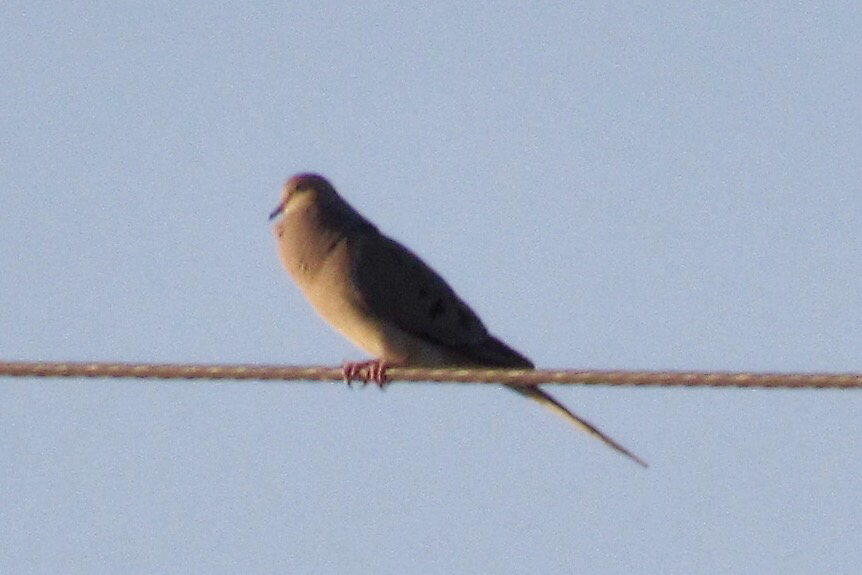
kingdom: Animalia
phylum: Chordata
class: Aves
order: Columbiformes
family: Columbidae
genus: Zenaida
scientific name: Zenaida macroura
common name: Mourning dove
